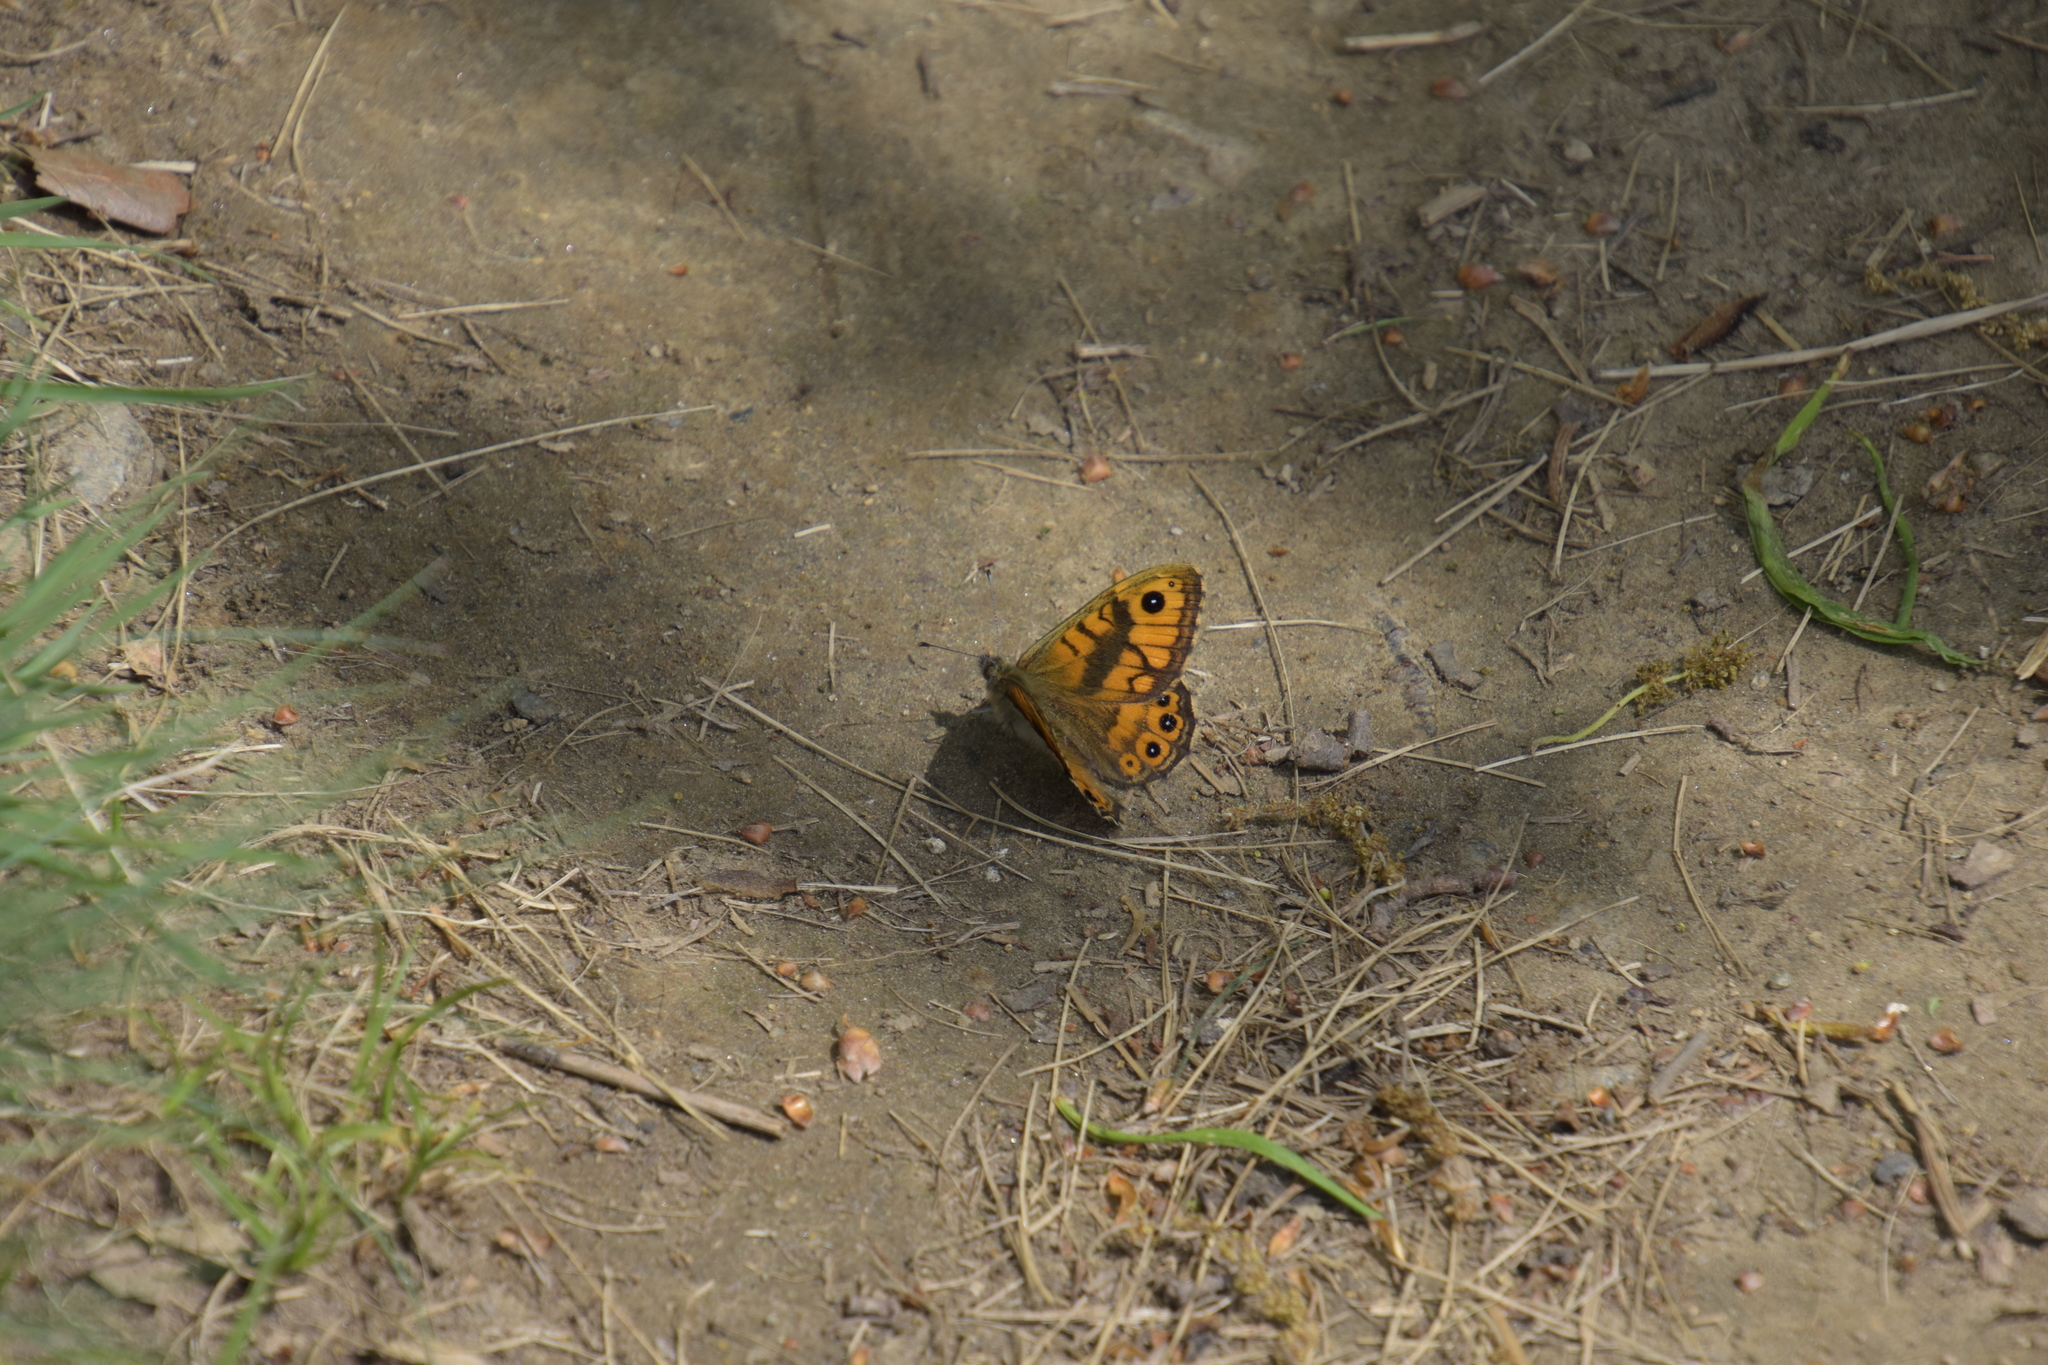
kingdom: Animalia
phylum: Arthropoda
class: Insecta
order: Lepidoptera
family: Nymphalidae
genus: Pararge
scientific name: Pararge Lasiommata megera
